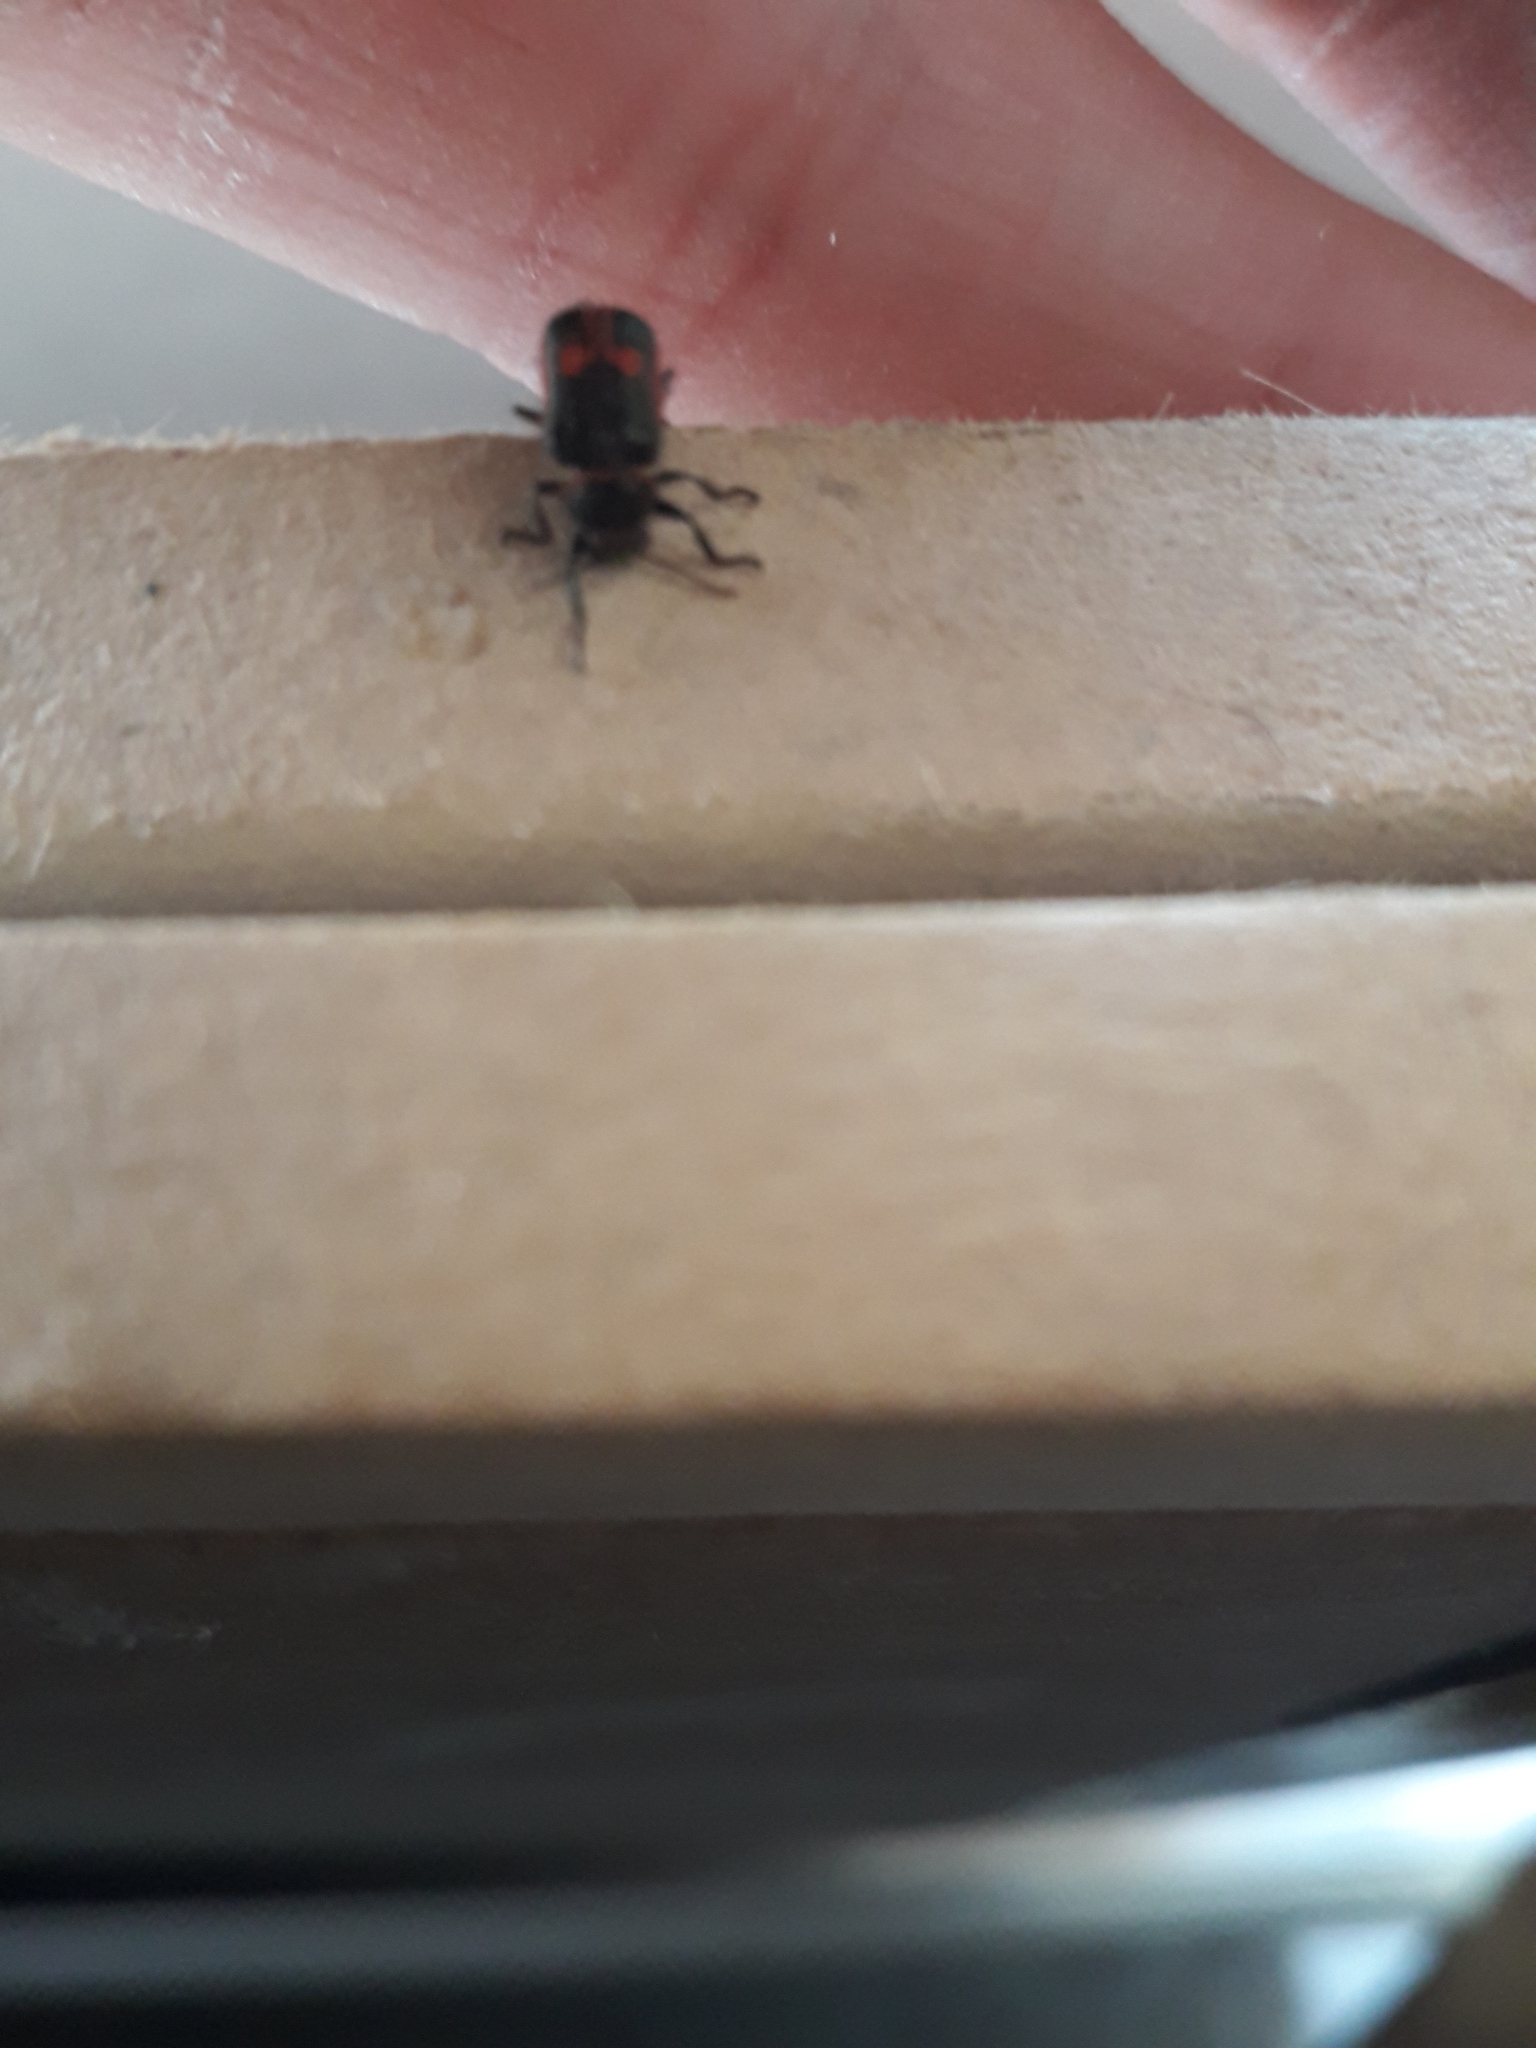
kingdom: Animalia
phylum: Arthropoda
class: Insecta
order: Coleoptera
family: Melyridae
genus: Astylus
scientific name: Astylus
